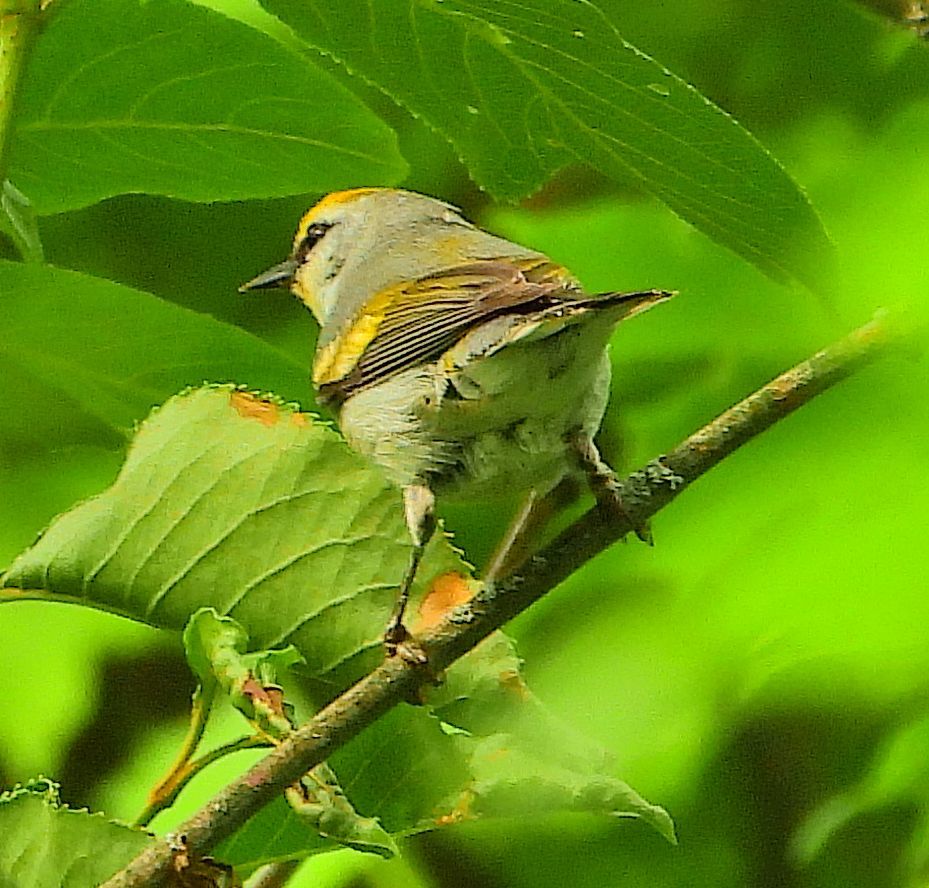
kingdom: Animalia
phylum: Chordata
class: Aves
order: Passeriformes
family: Parulidae
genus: Vermivora
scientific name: Vermivora
